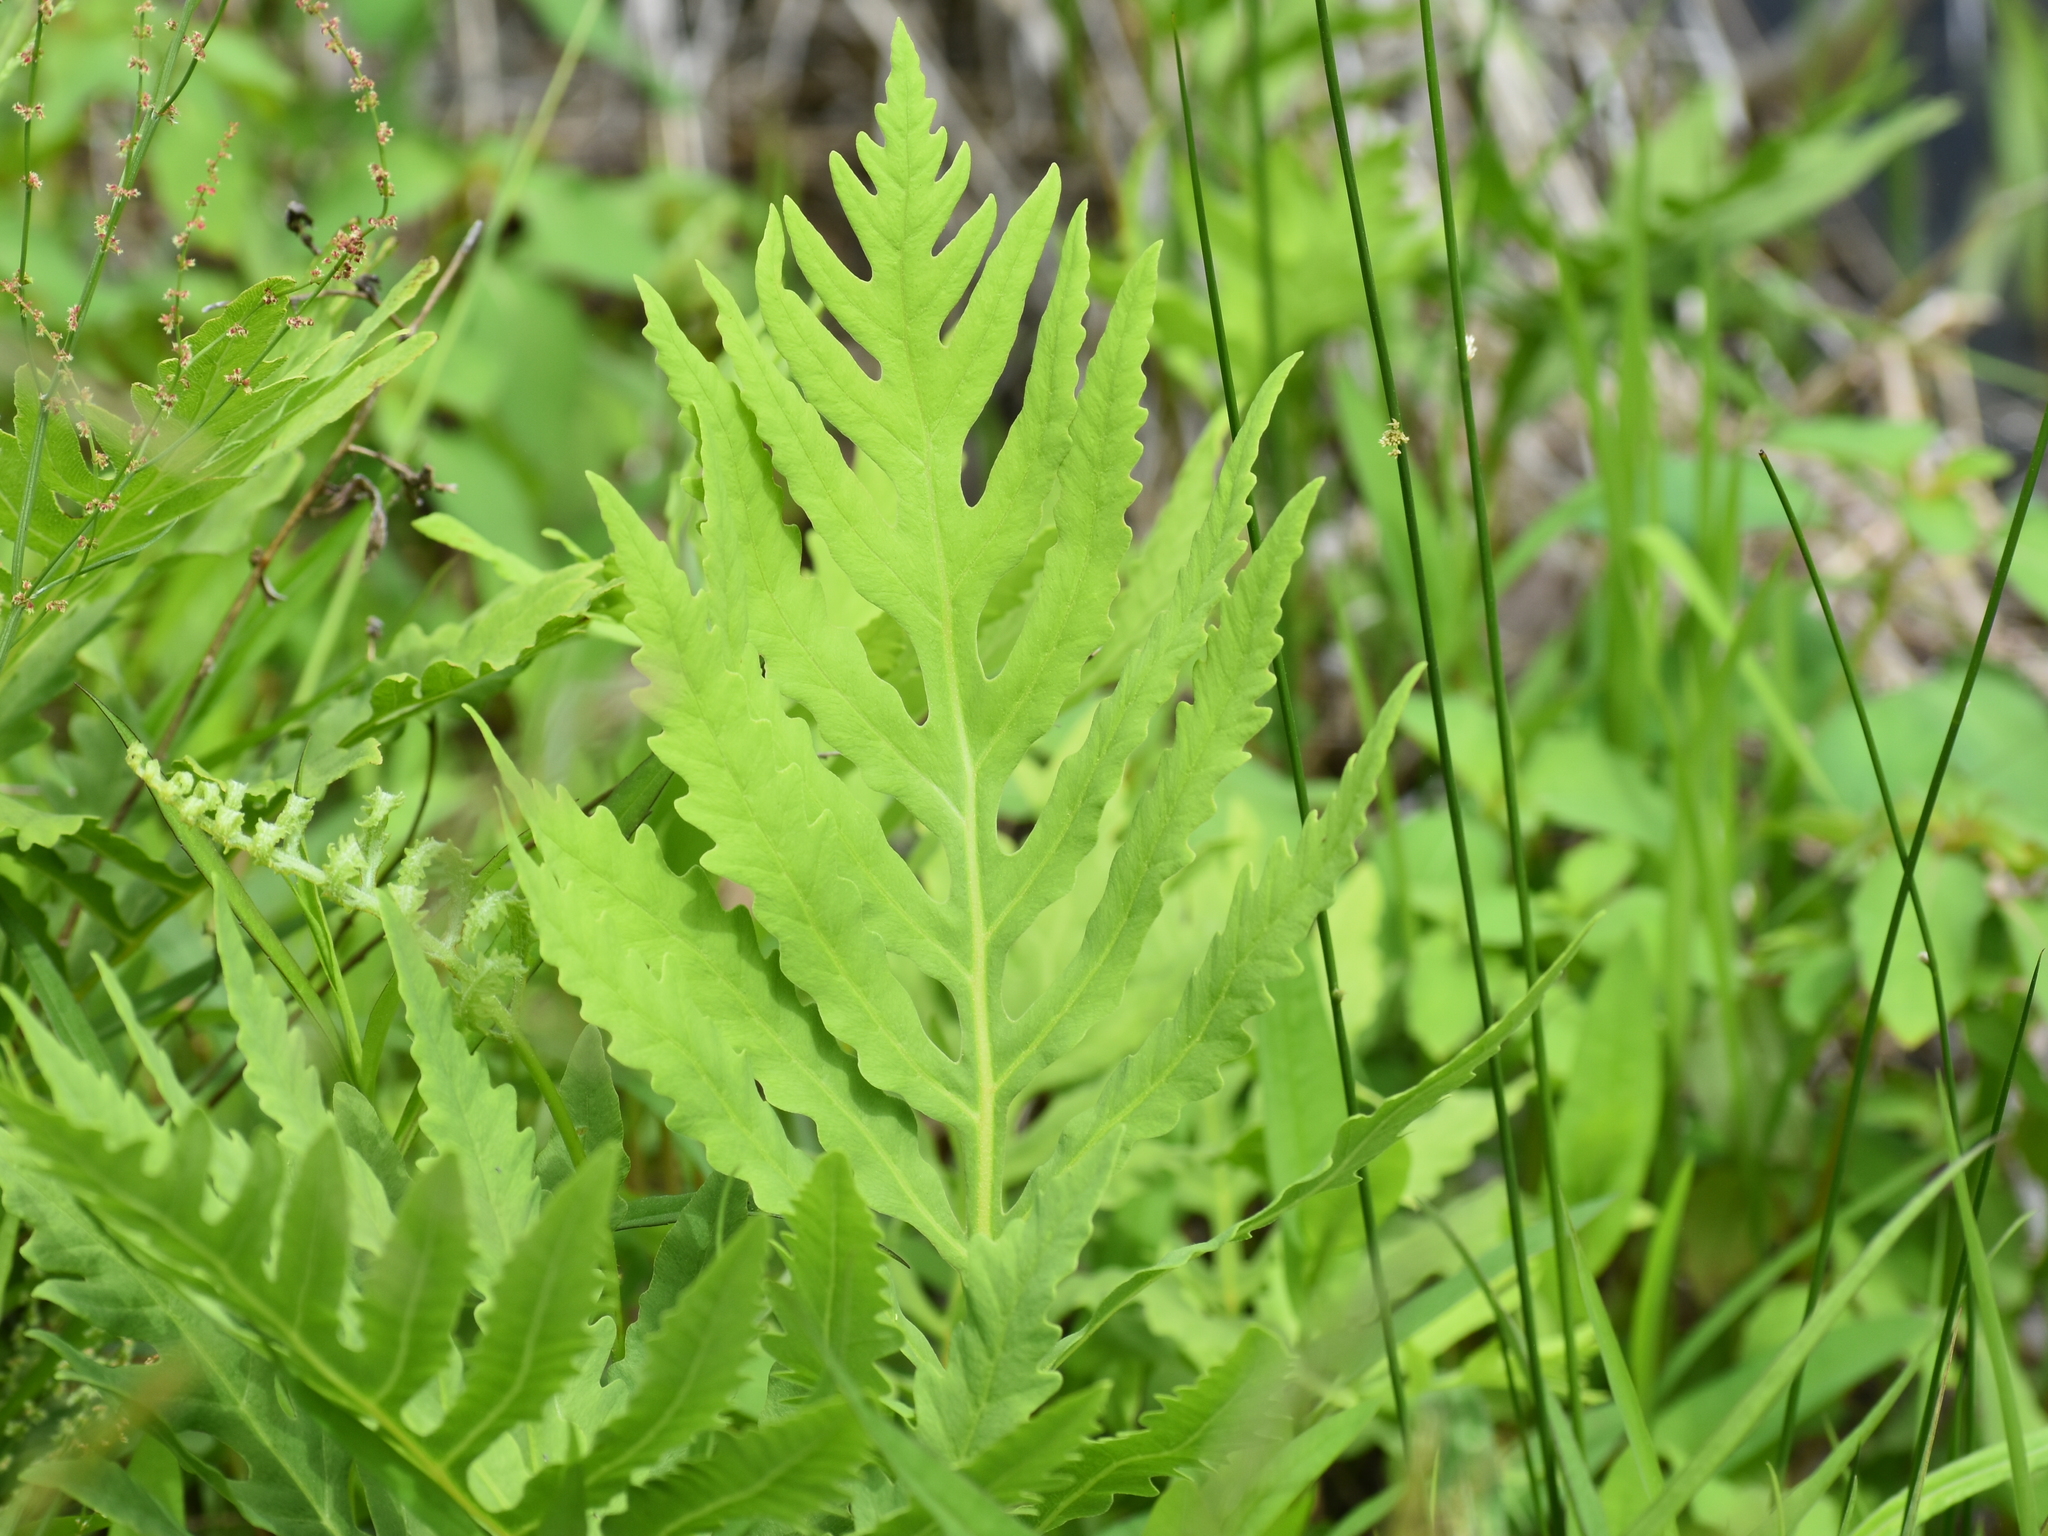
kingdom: Plantae
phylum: Tracheophyta
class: Polypodiopsida
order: Polypodiales
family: Onocleaceae
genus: Onoclea
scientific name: Onoclea sensibilis
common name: Sensitive fern
